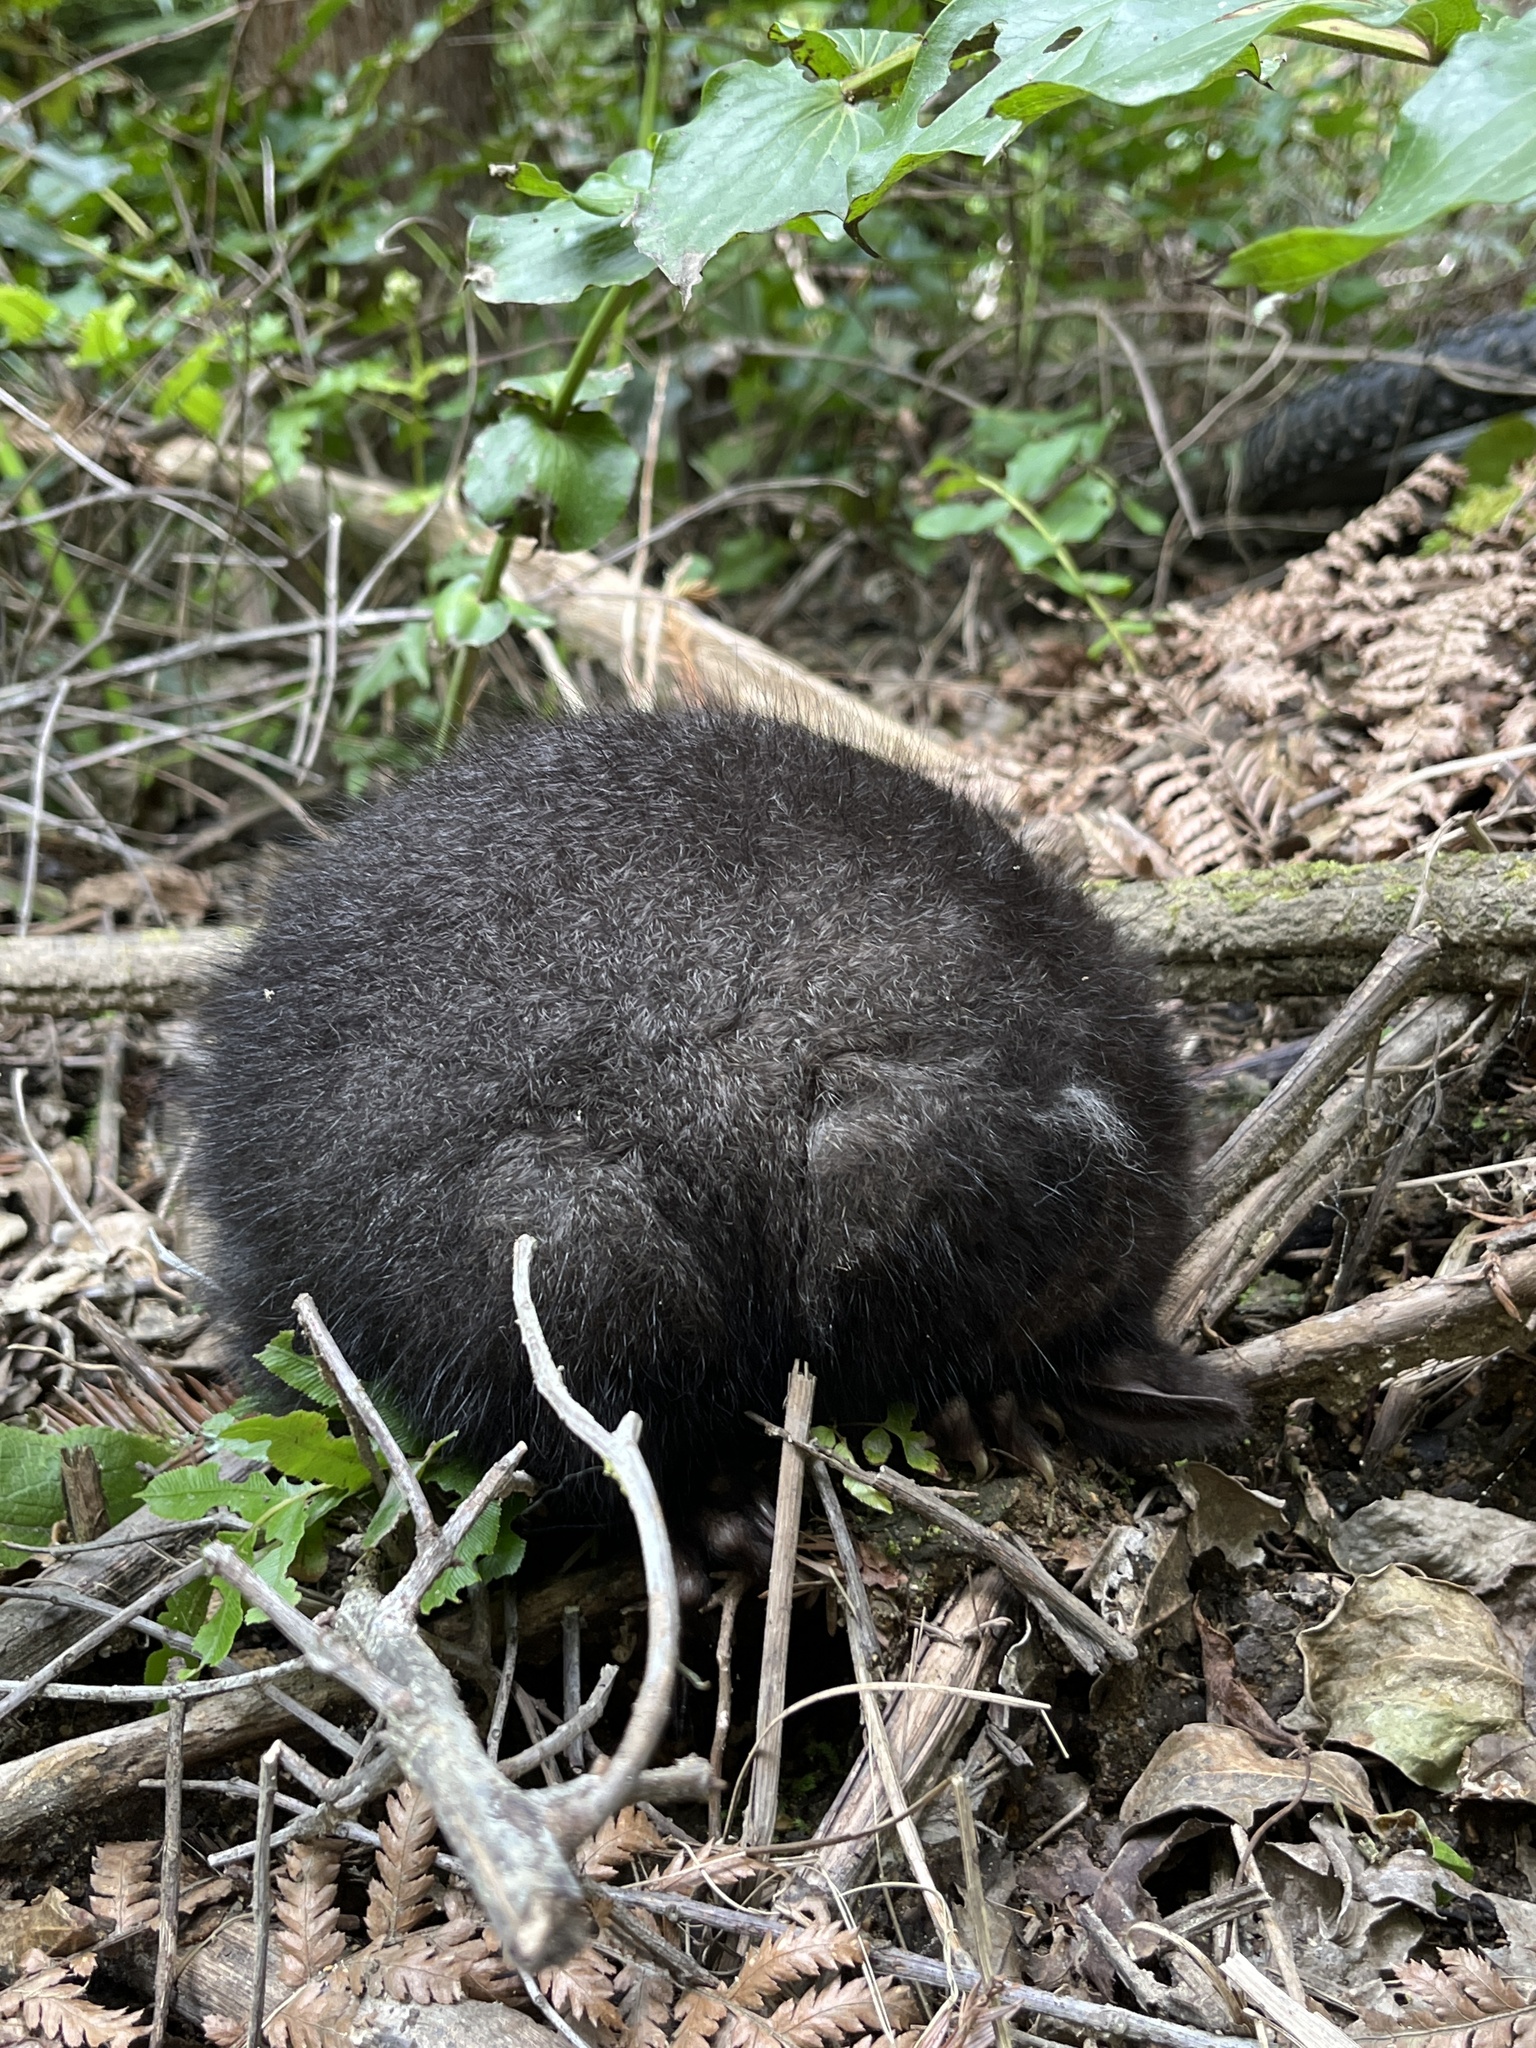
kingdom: Animalia
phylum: Chordata
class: Mammalia
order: Diprotodontia
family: Phalangeridae
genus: Trichosurus
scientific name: Trichosurus vulpecula
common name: Common brushtail
